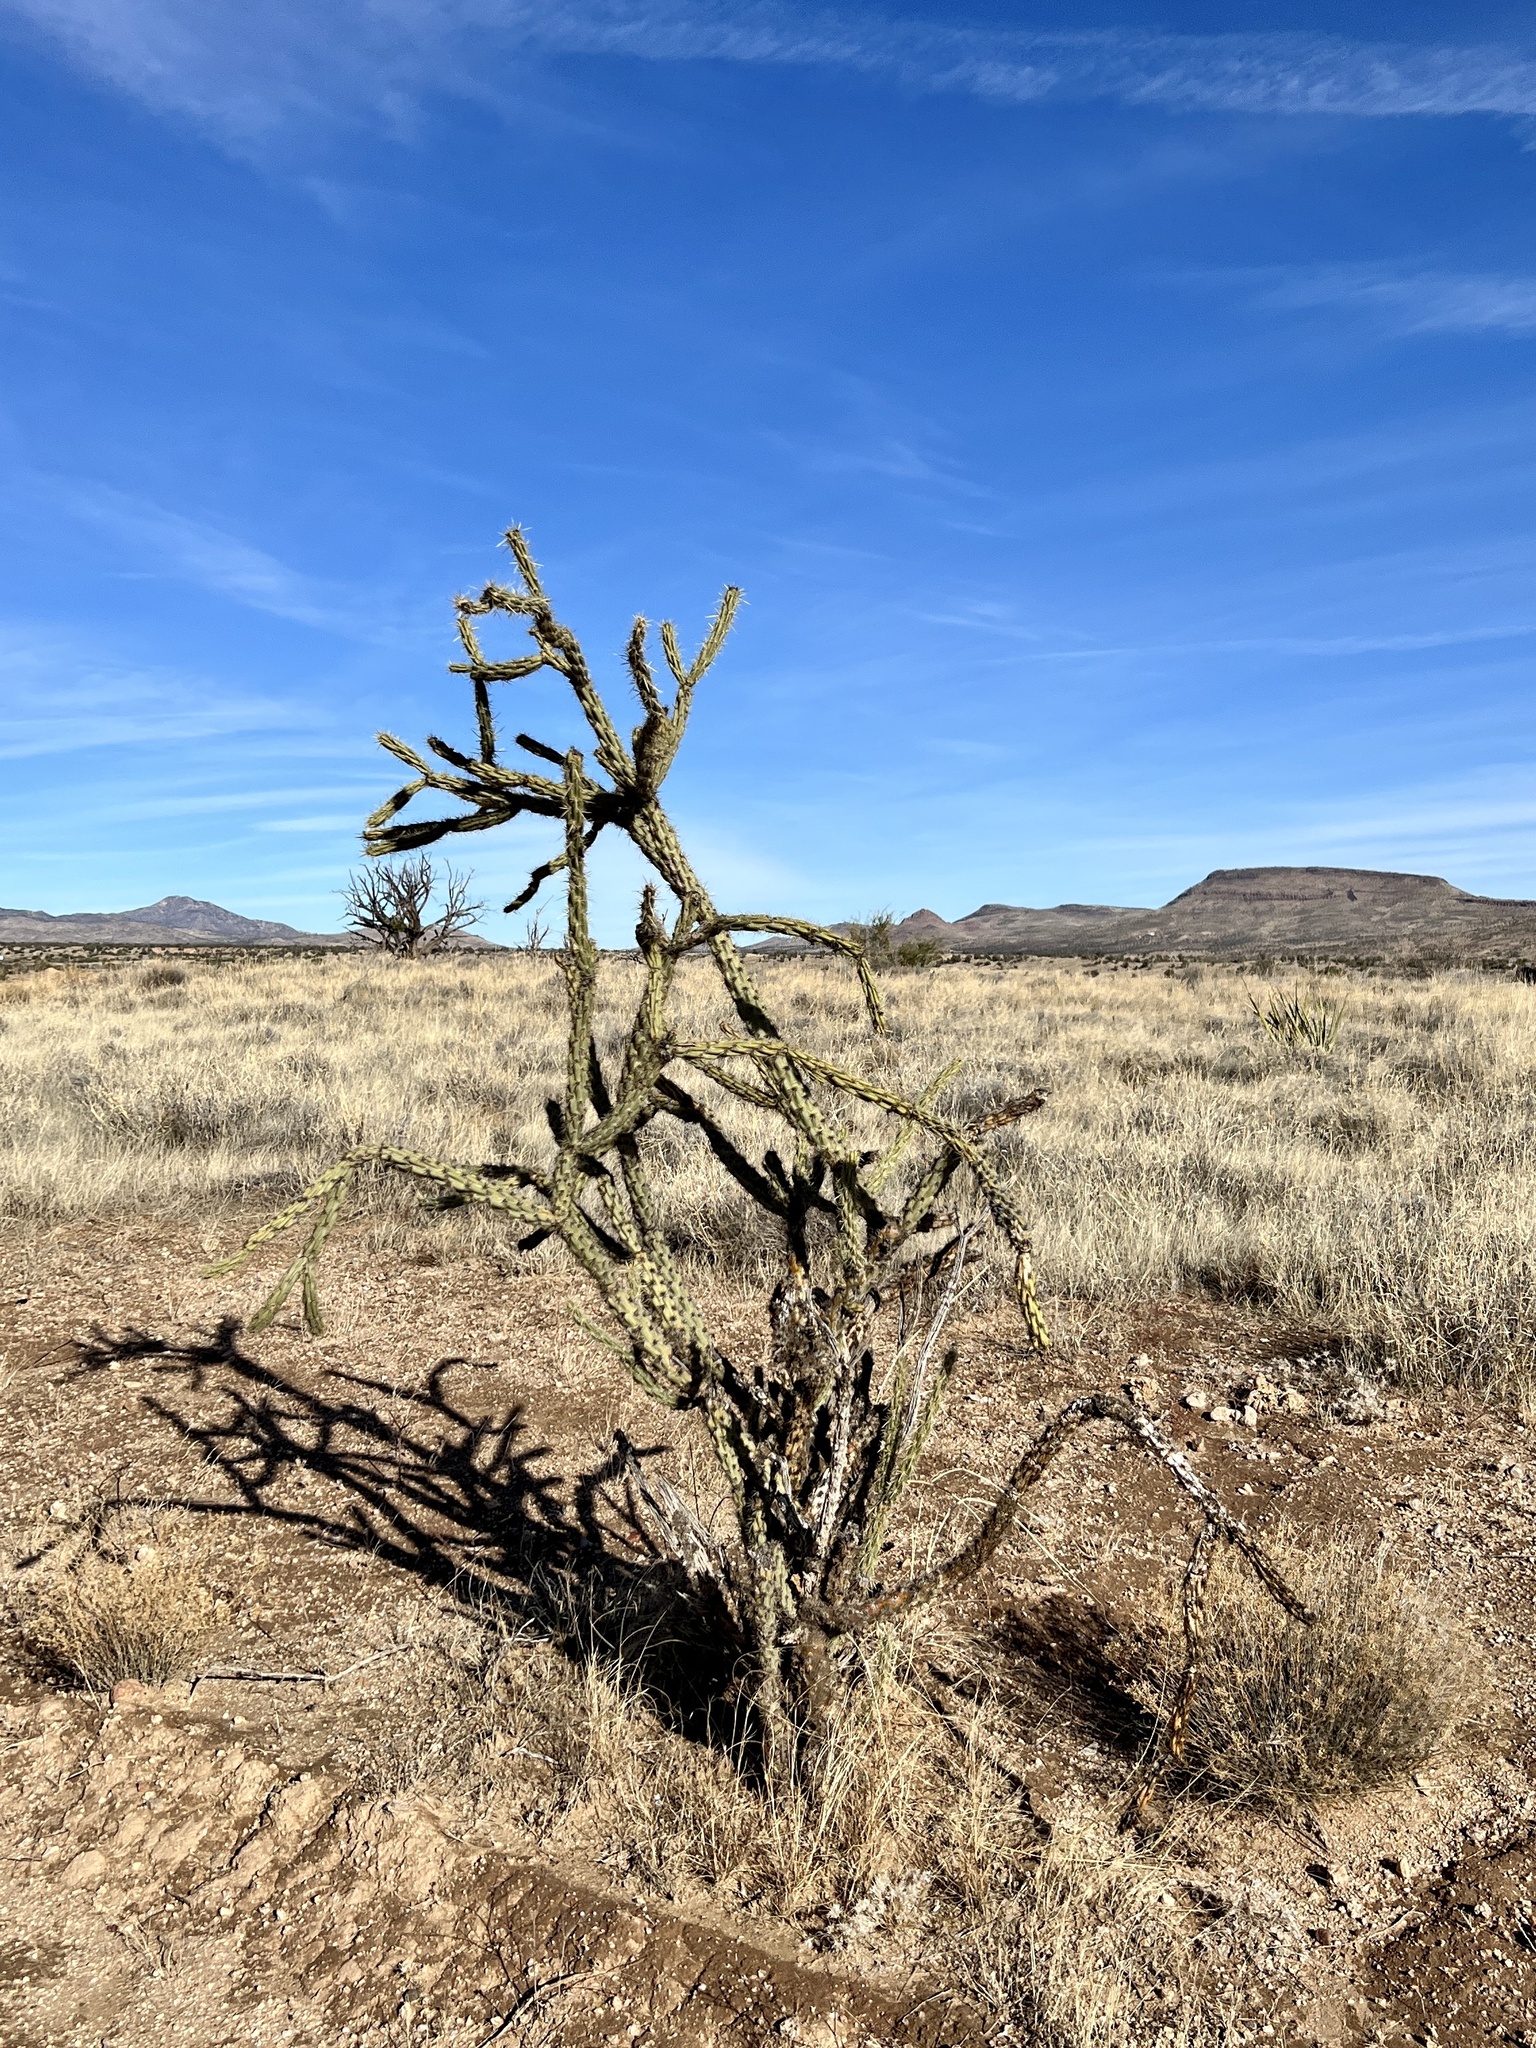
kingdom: Plantae
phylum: Tracheophyta
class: Magnoliopsida
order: Caryophyllales
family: Cactaceae
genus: Cylindropuntia
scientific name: Cylindropuntia acanthocarpa
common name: Buckhorn cholla
